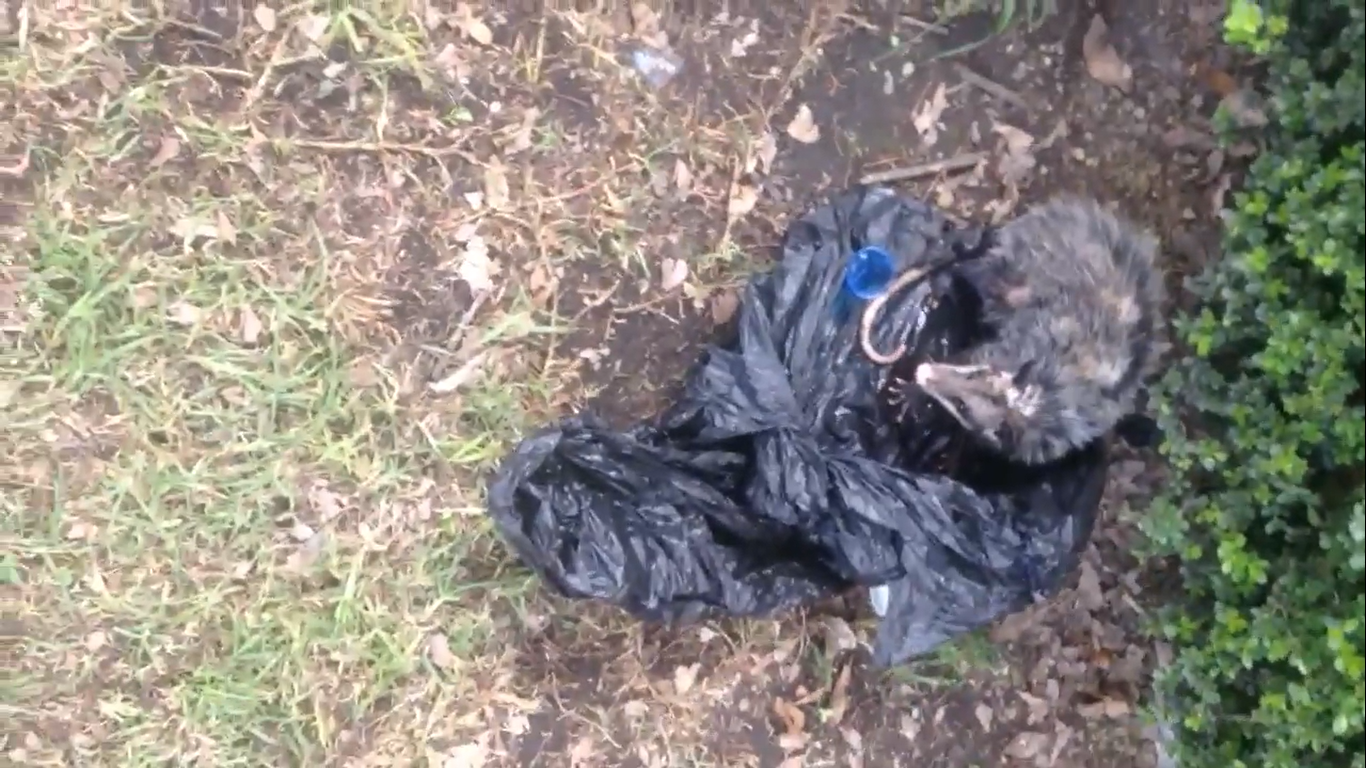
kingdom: Animalia
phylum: Chordata
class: Mammalia
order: Didelphimorphia
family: Didelphidae
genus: Didelphis
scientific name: Didelphis virginiana
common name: Virginia opossum
